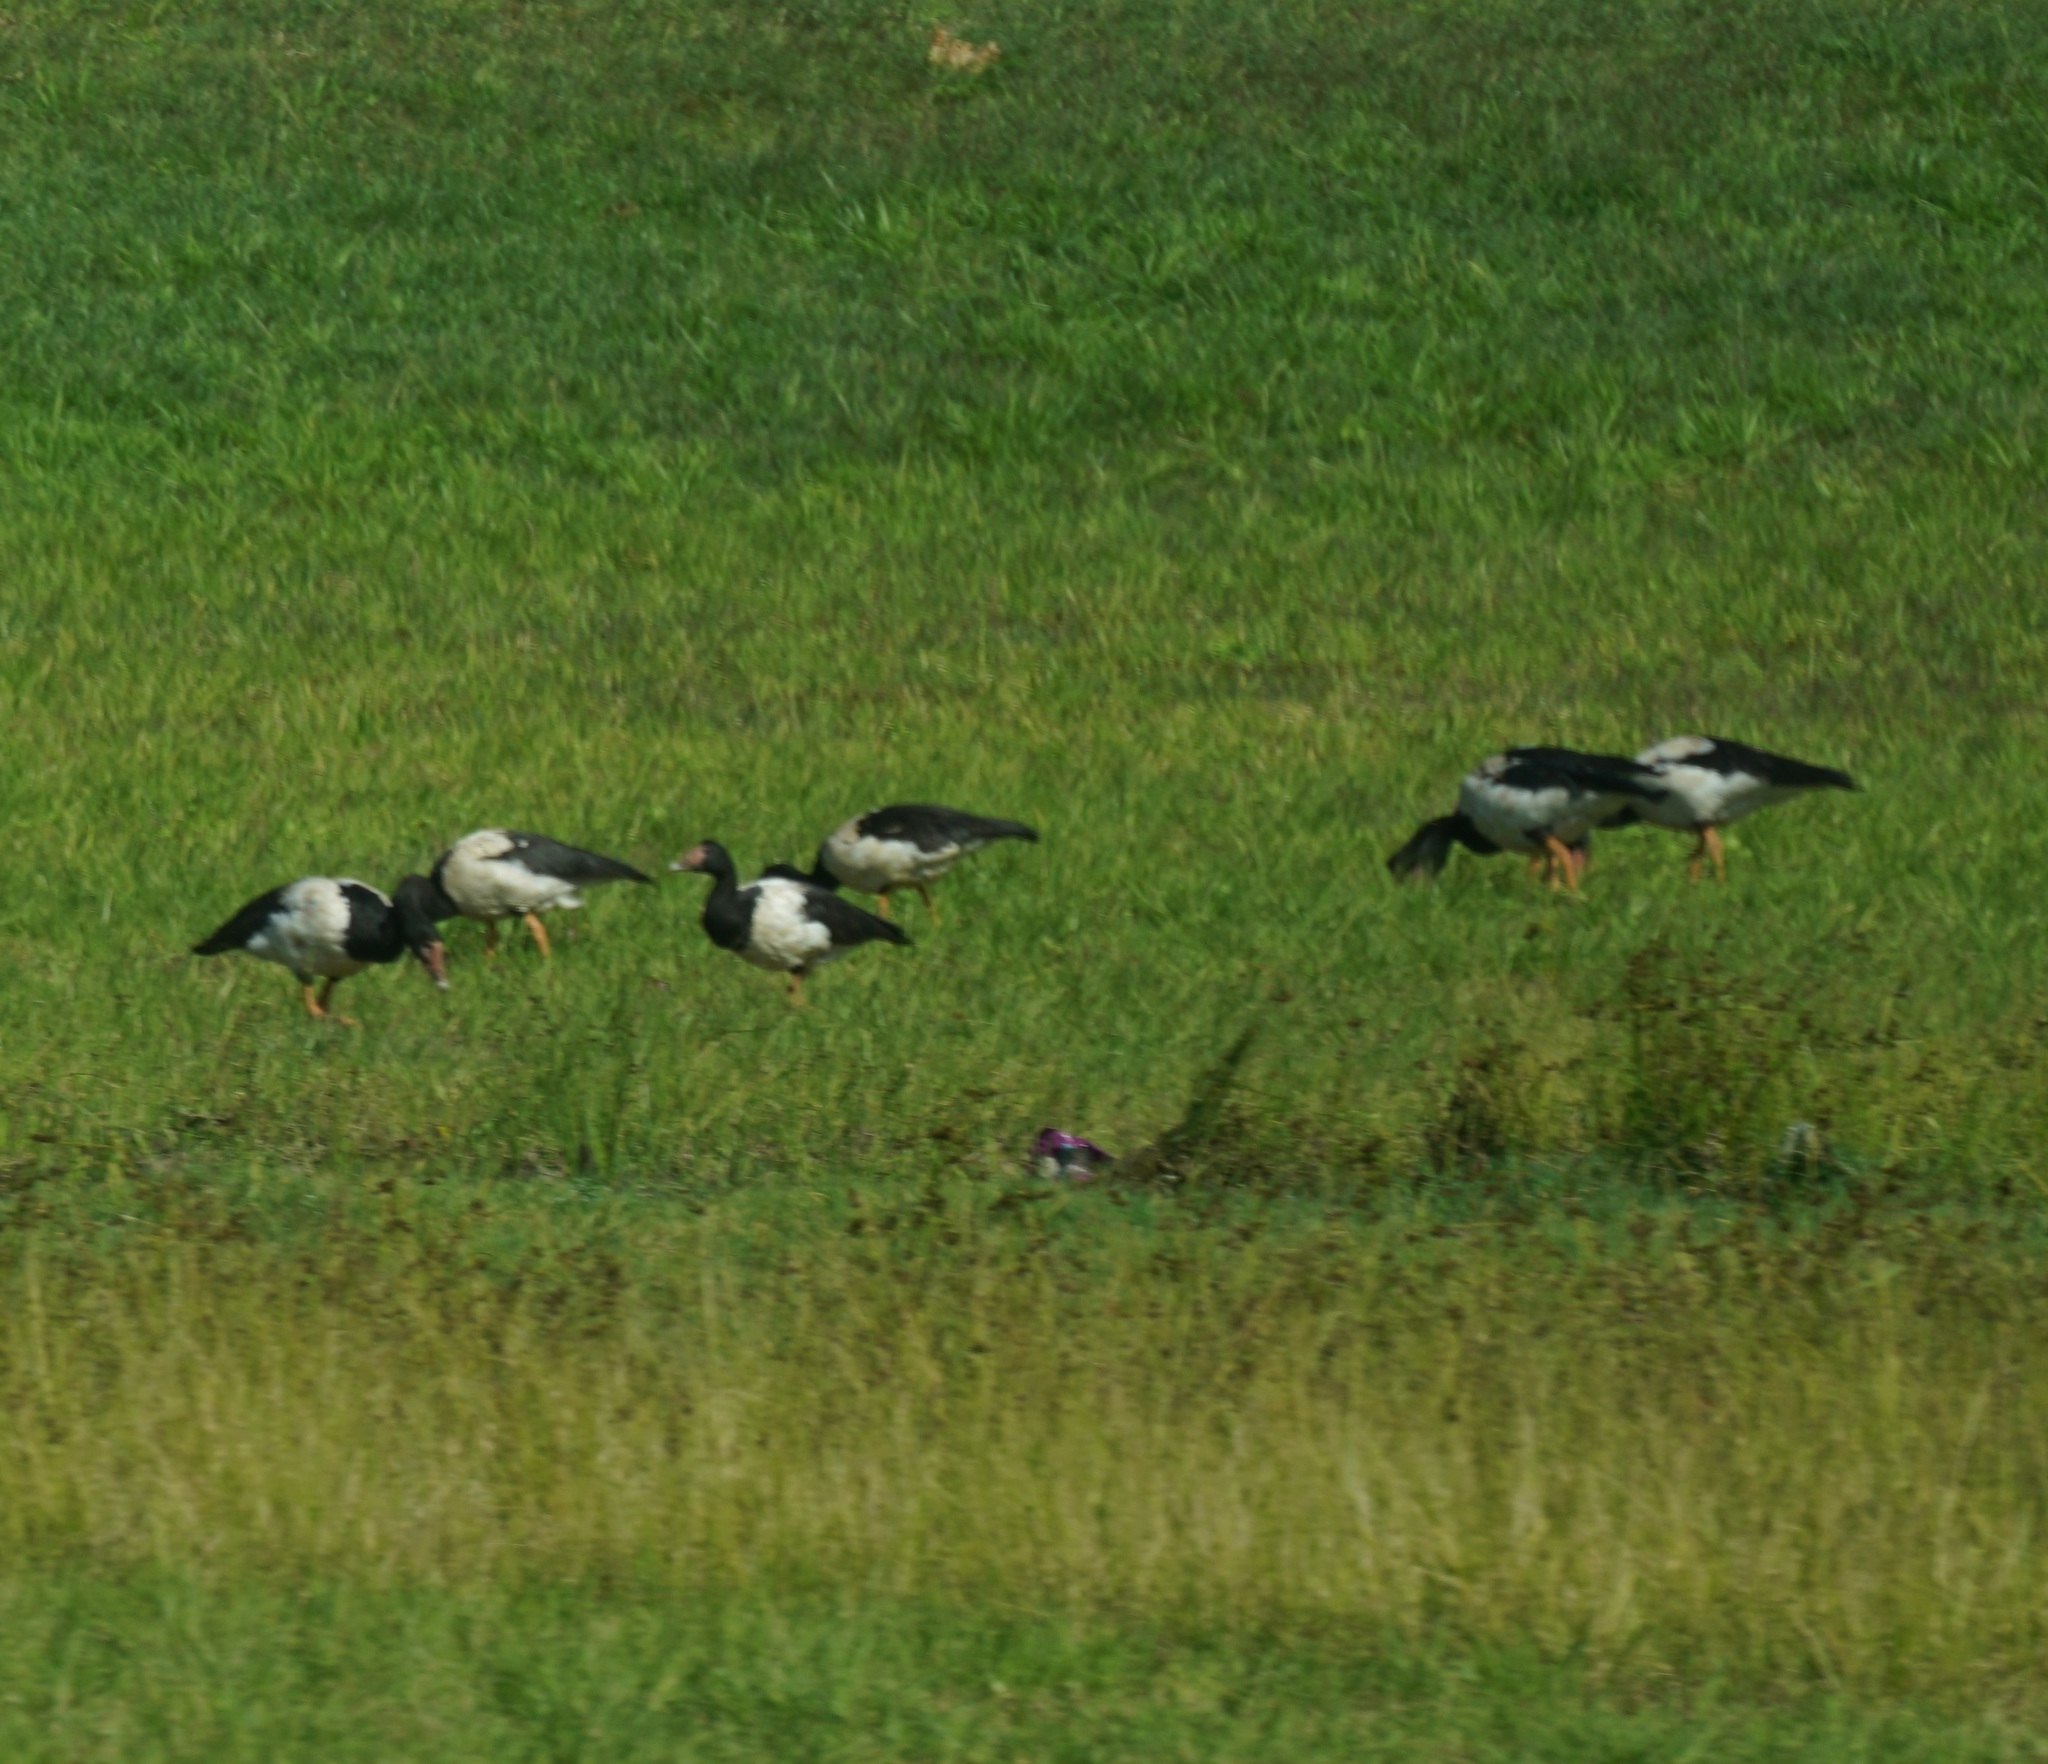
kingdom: Animalia
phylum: Chordata
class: Aves
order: Anseriformes
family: Anseranatidae
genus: Anseranas
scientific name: Anseranas semipalmata
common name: Magpie goose
